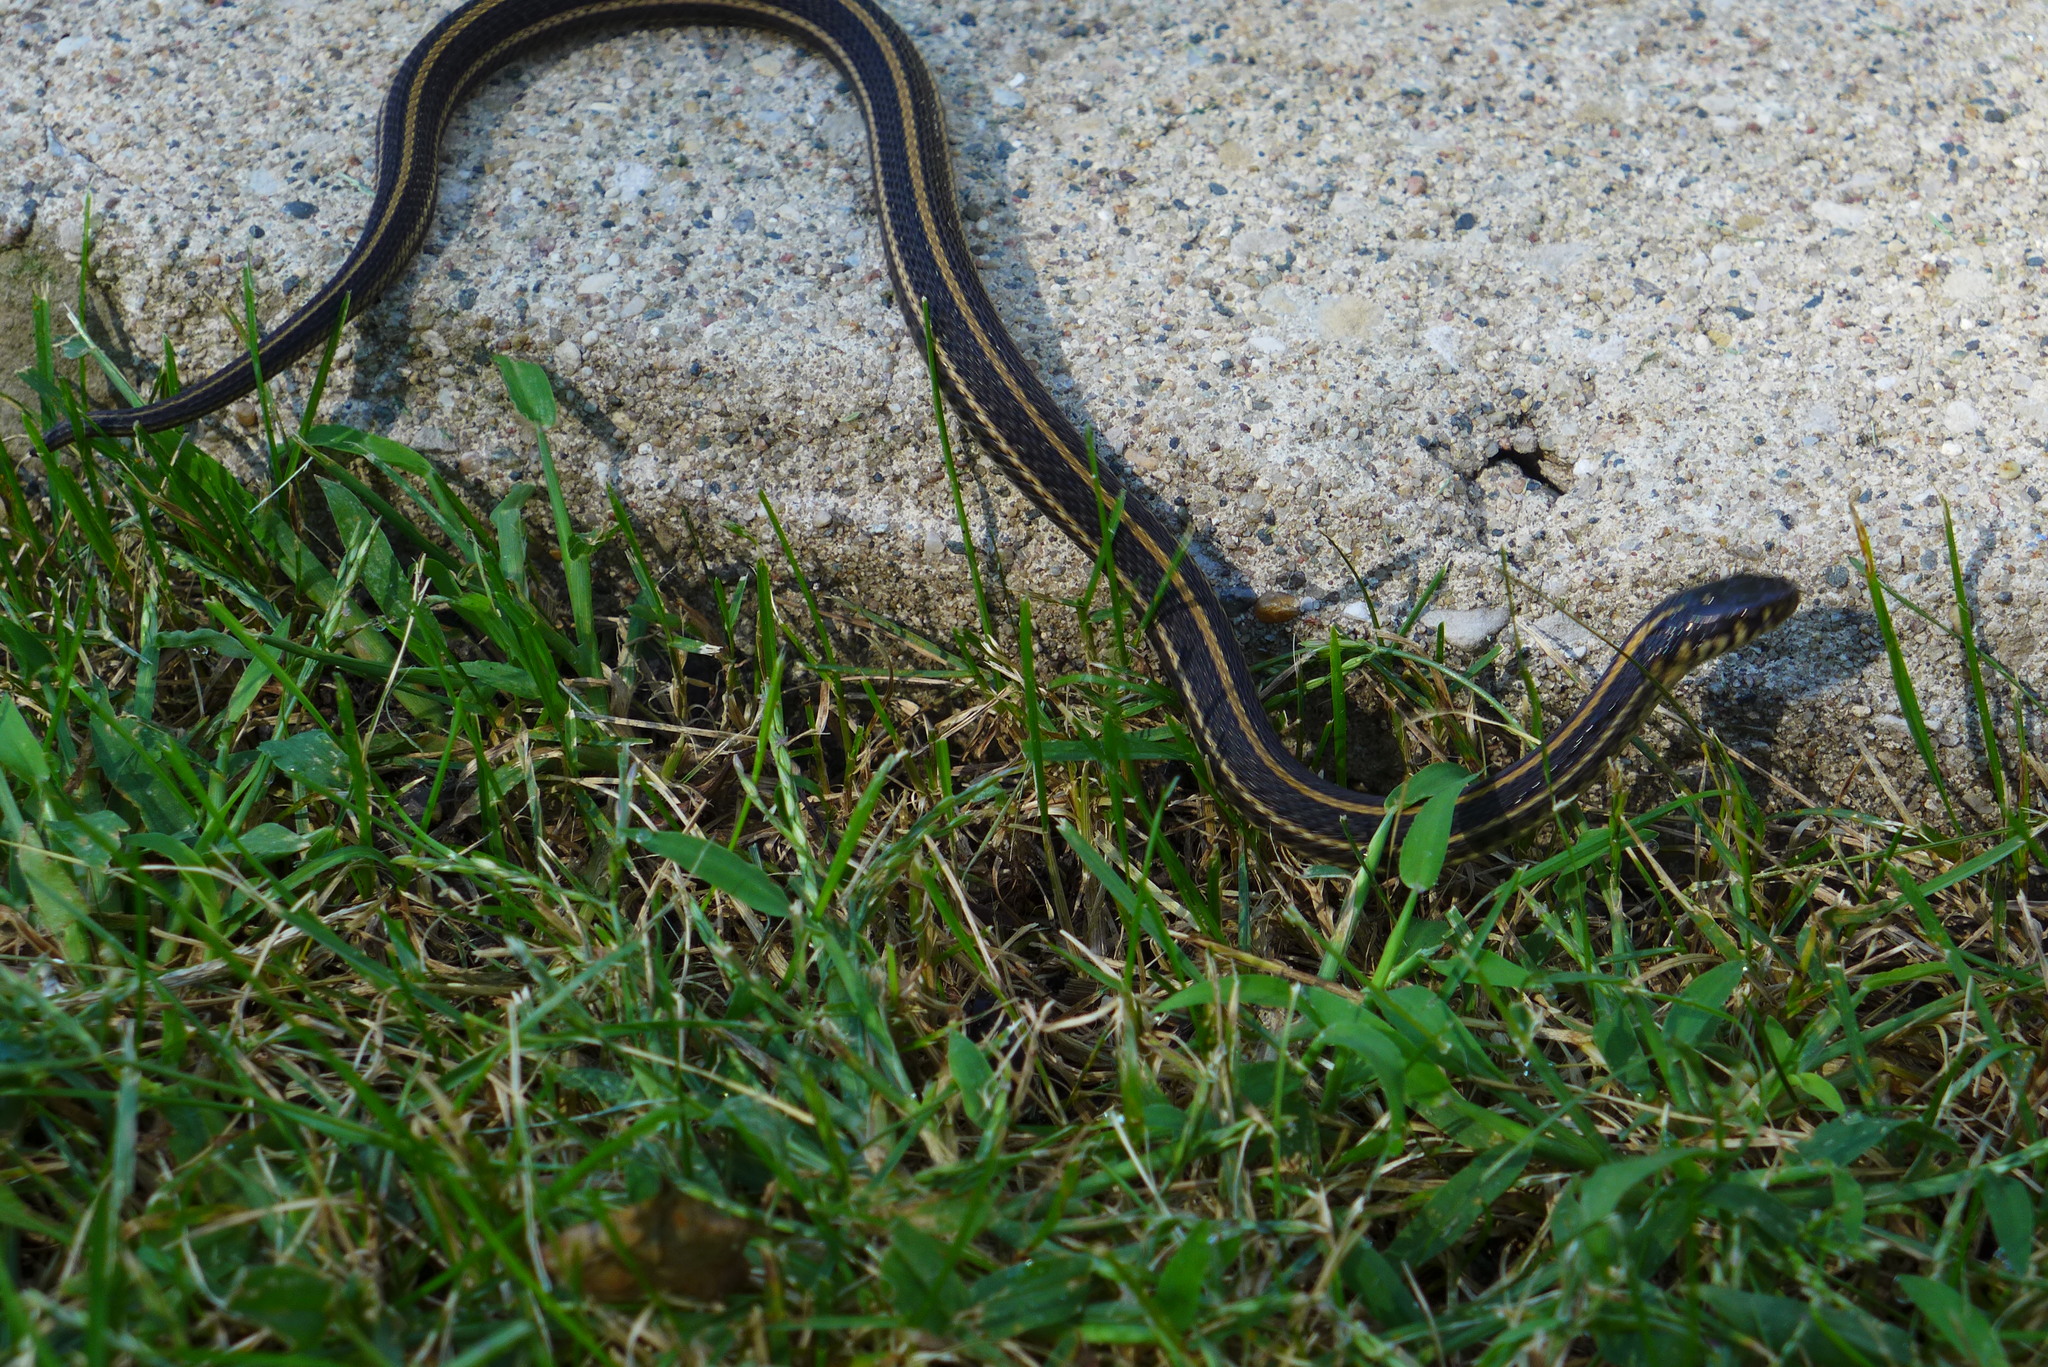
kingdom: Animalia
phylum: Chordata
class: Squamata
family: Colubridae
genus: Thamnophis
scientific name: Thamnophis radix
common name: Plains garter snake
